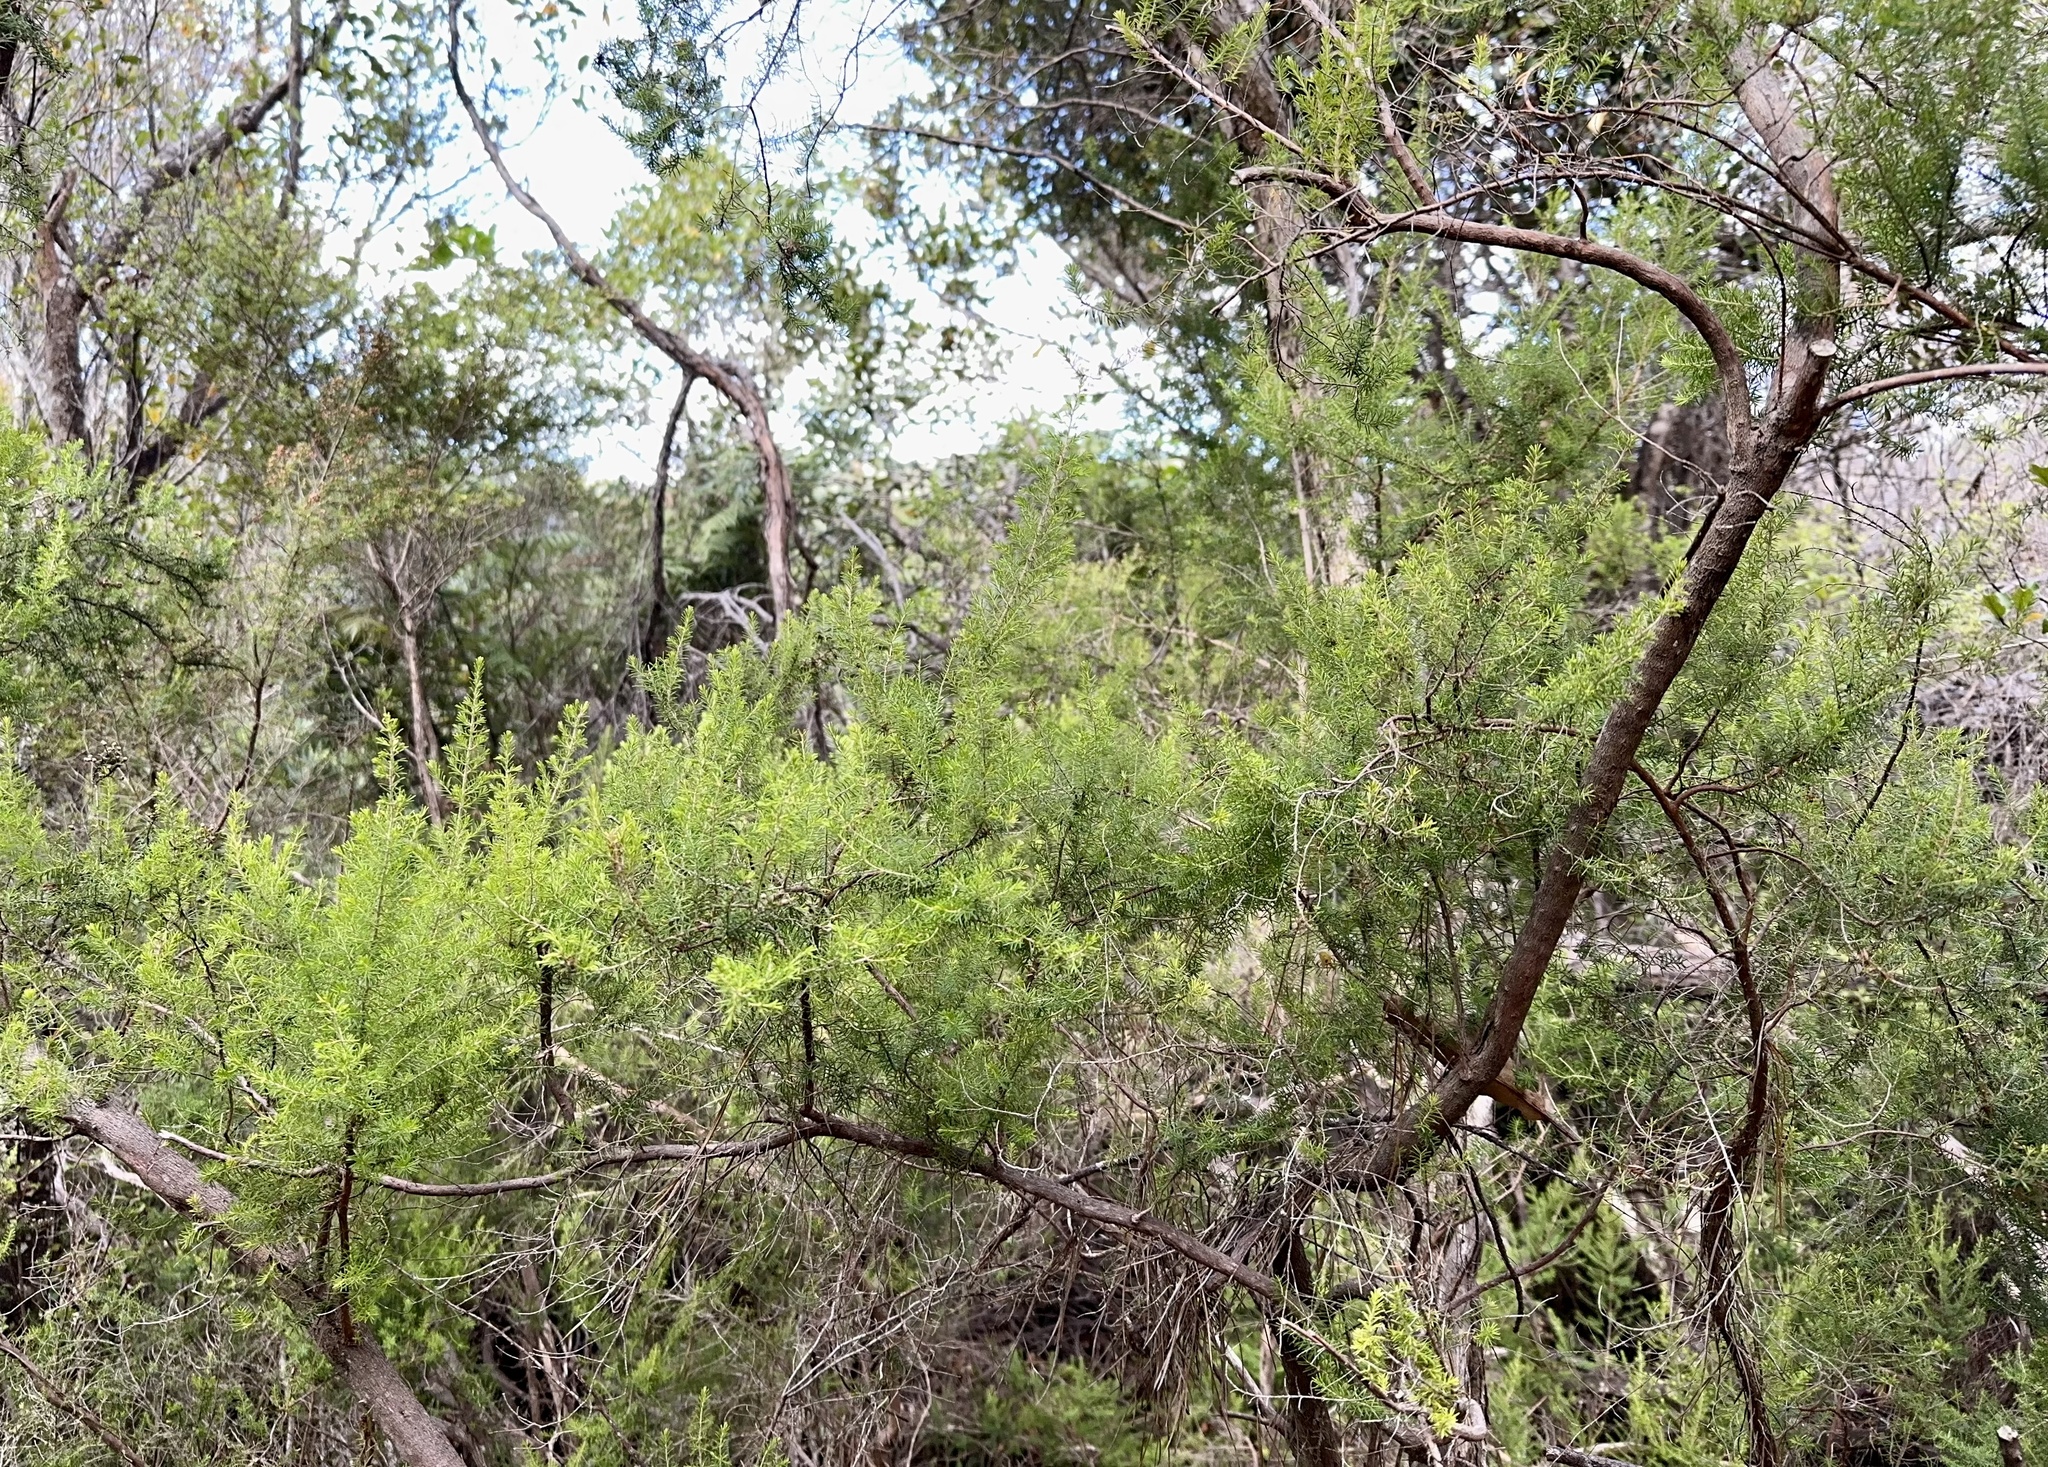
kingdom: Plantae
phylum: Tracheophyta
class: Magnoliopsida
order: Ericales
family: Ericaceae
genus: Erica
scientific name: Erica lusitanica
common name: Spanish heath
